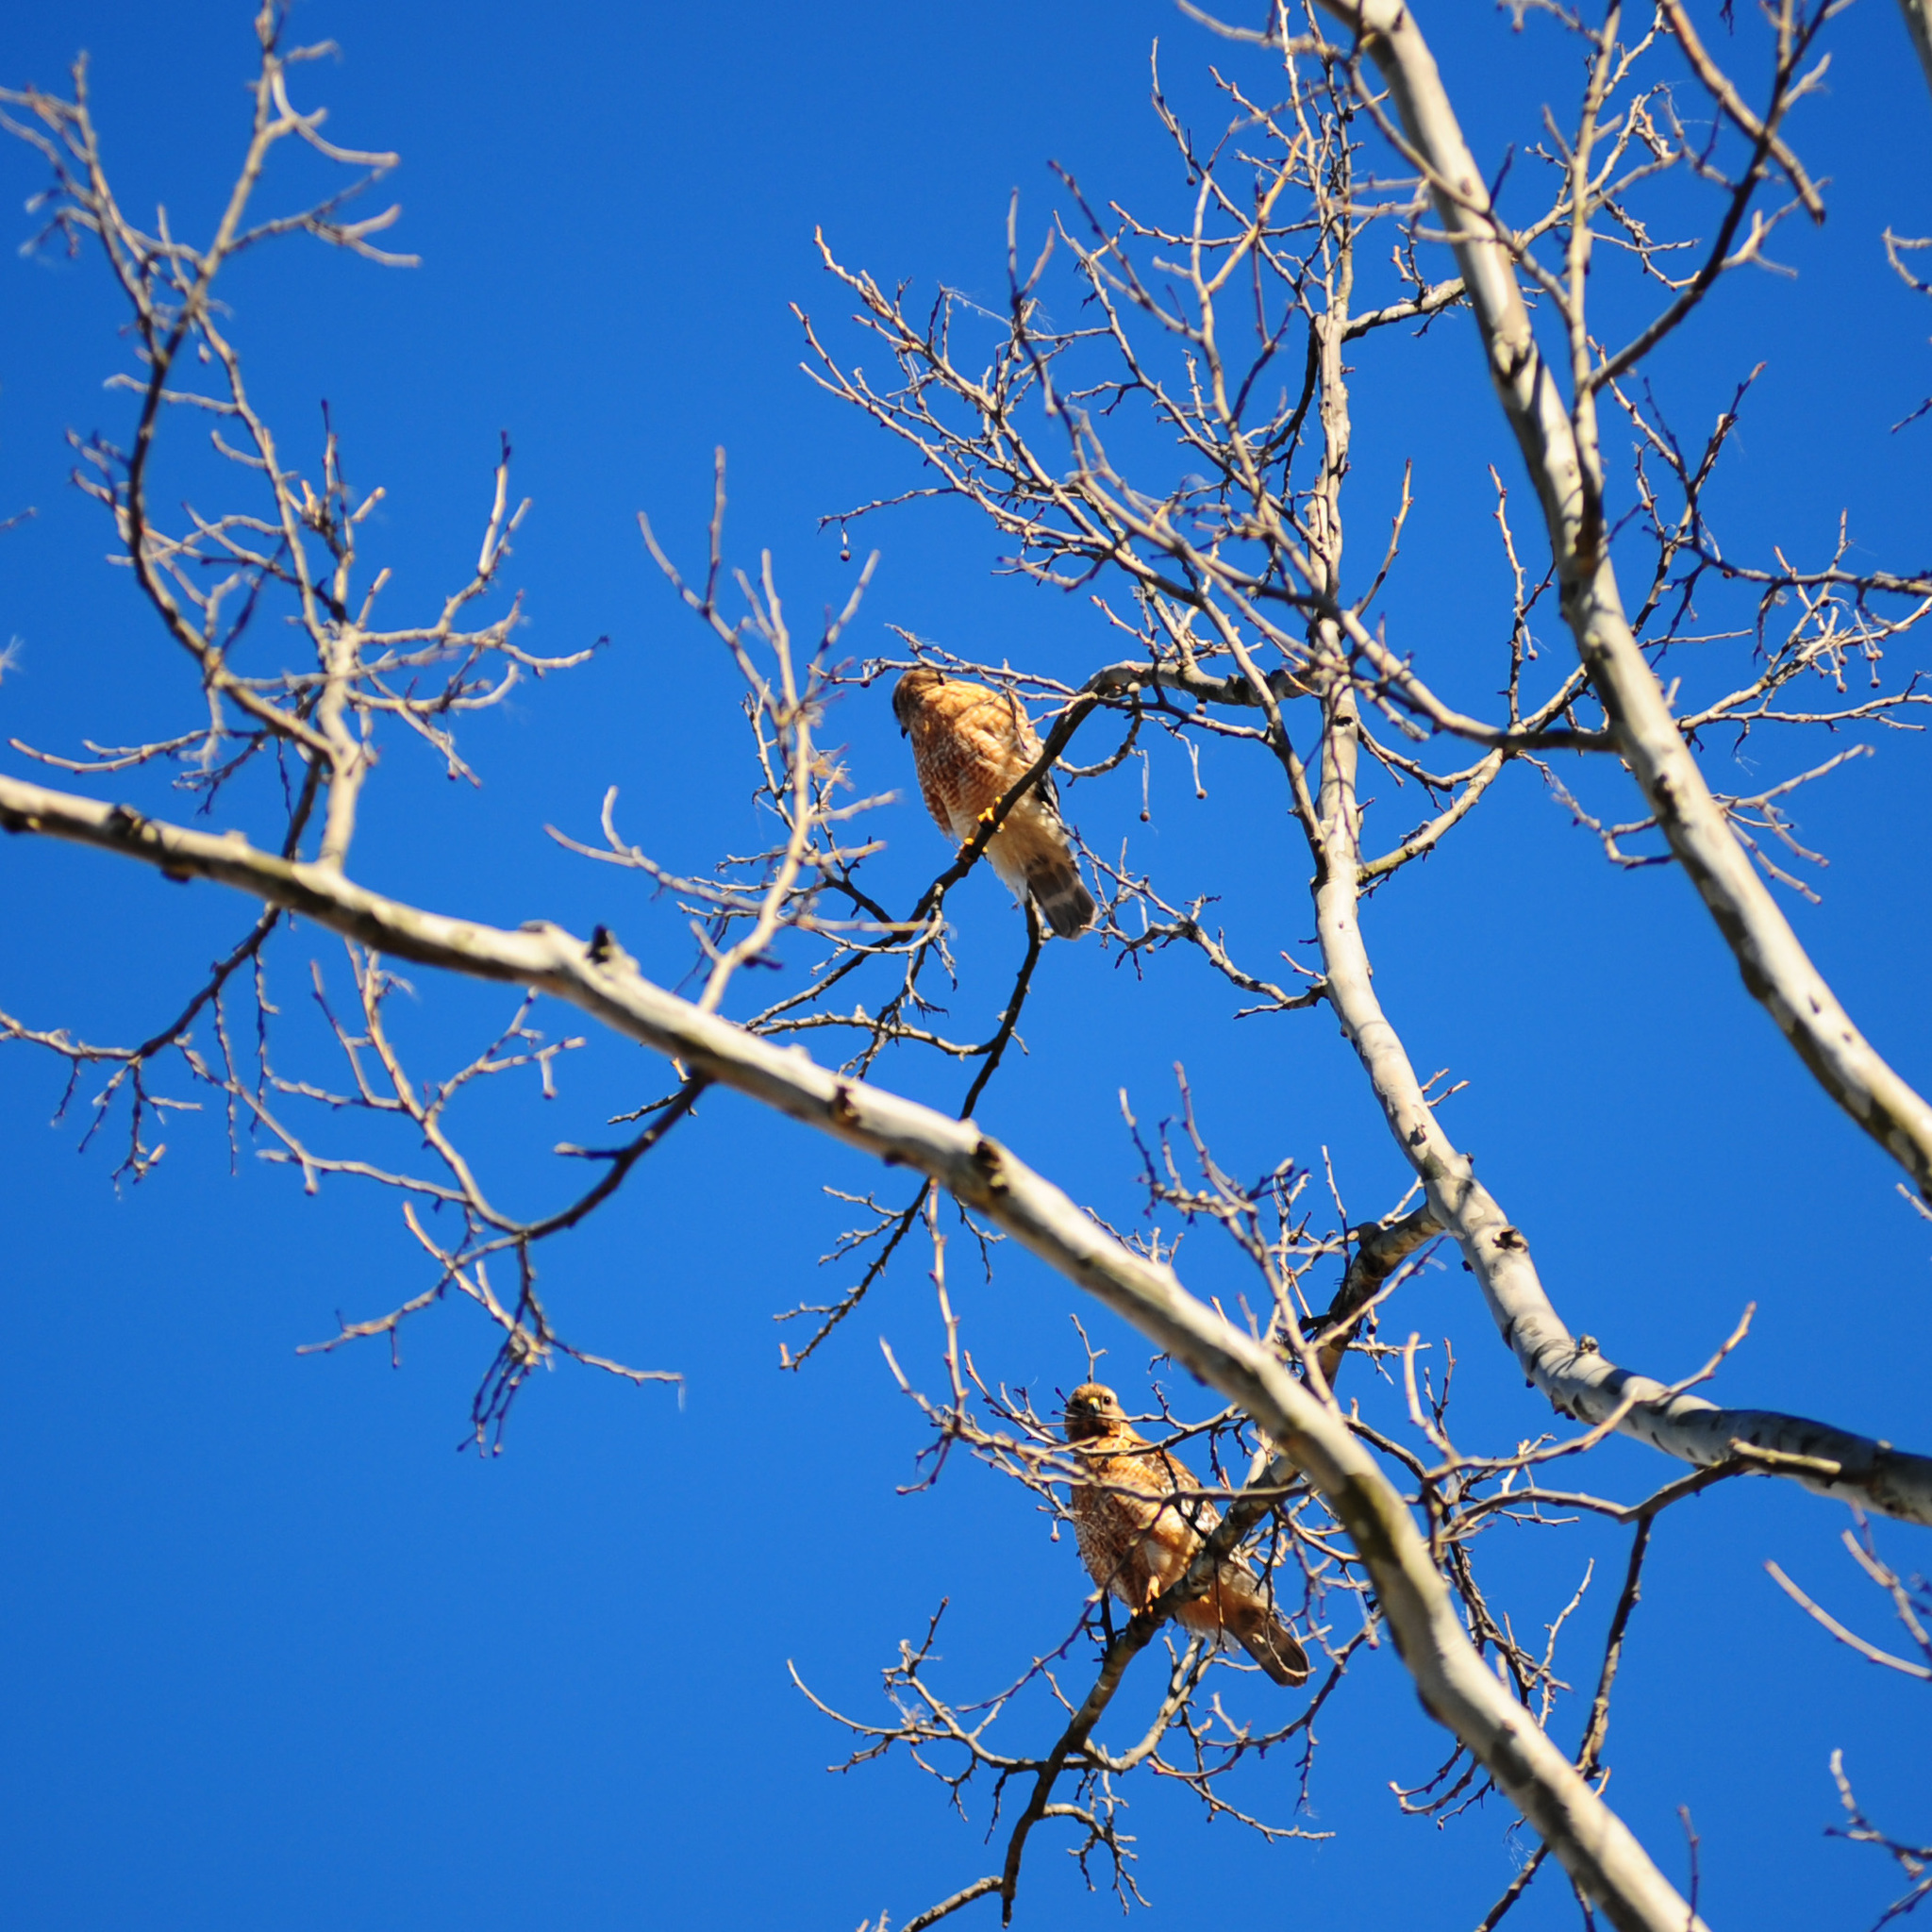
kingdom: Animalia
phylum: Chordata
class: Aves
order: Accipitriformes
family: Accipitridae
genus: Buteo
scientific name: Buteo lineatus
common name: Red-shouldered hawk
